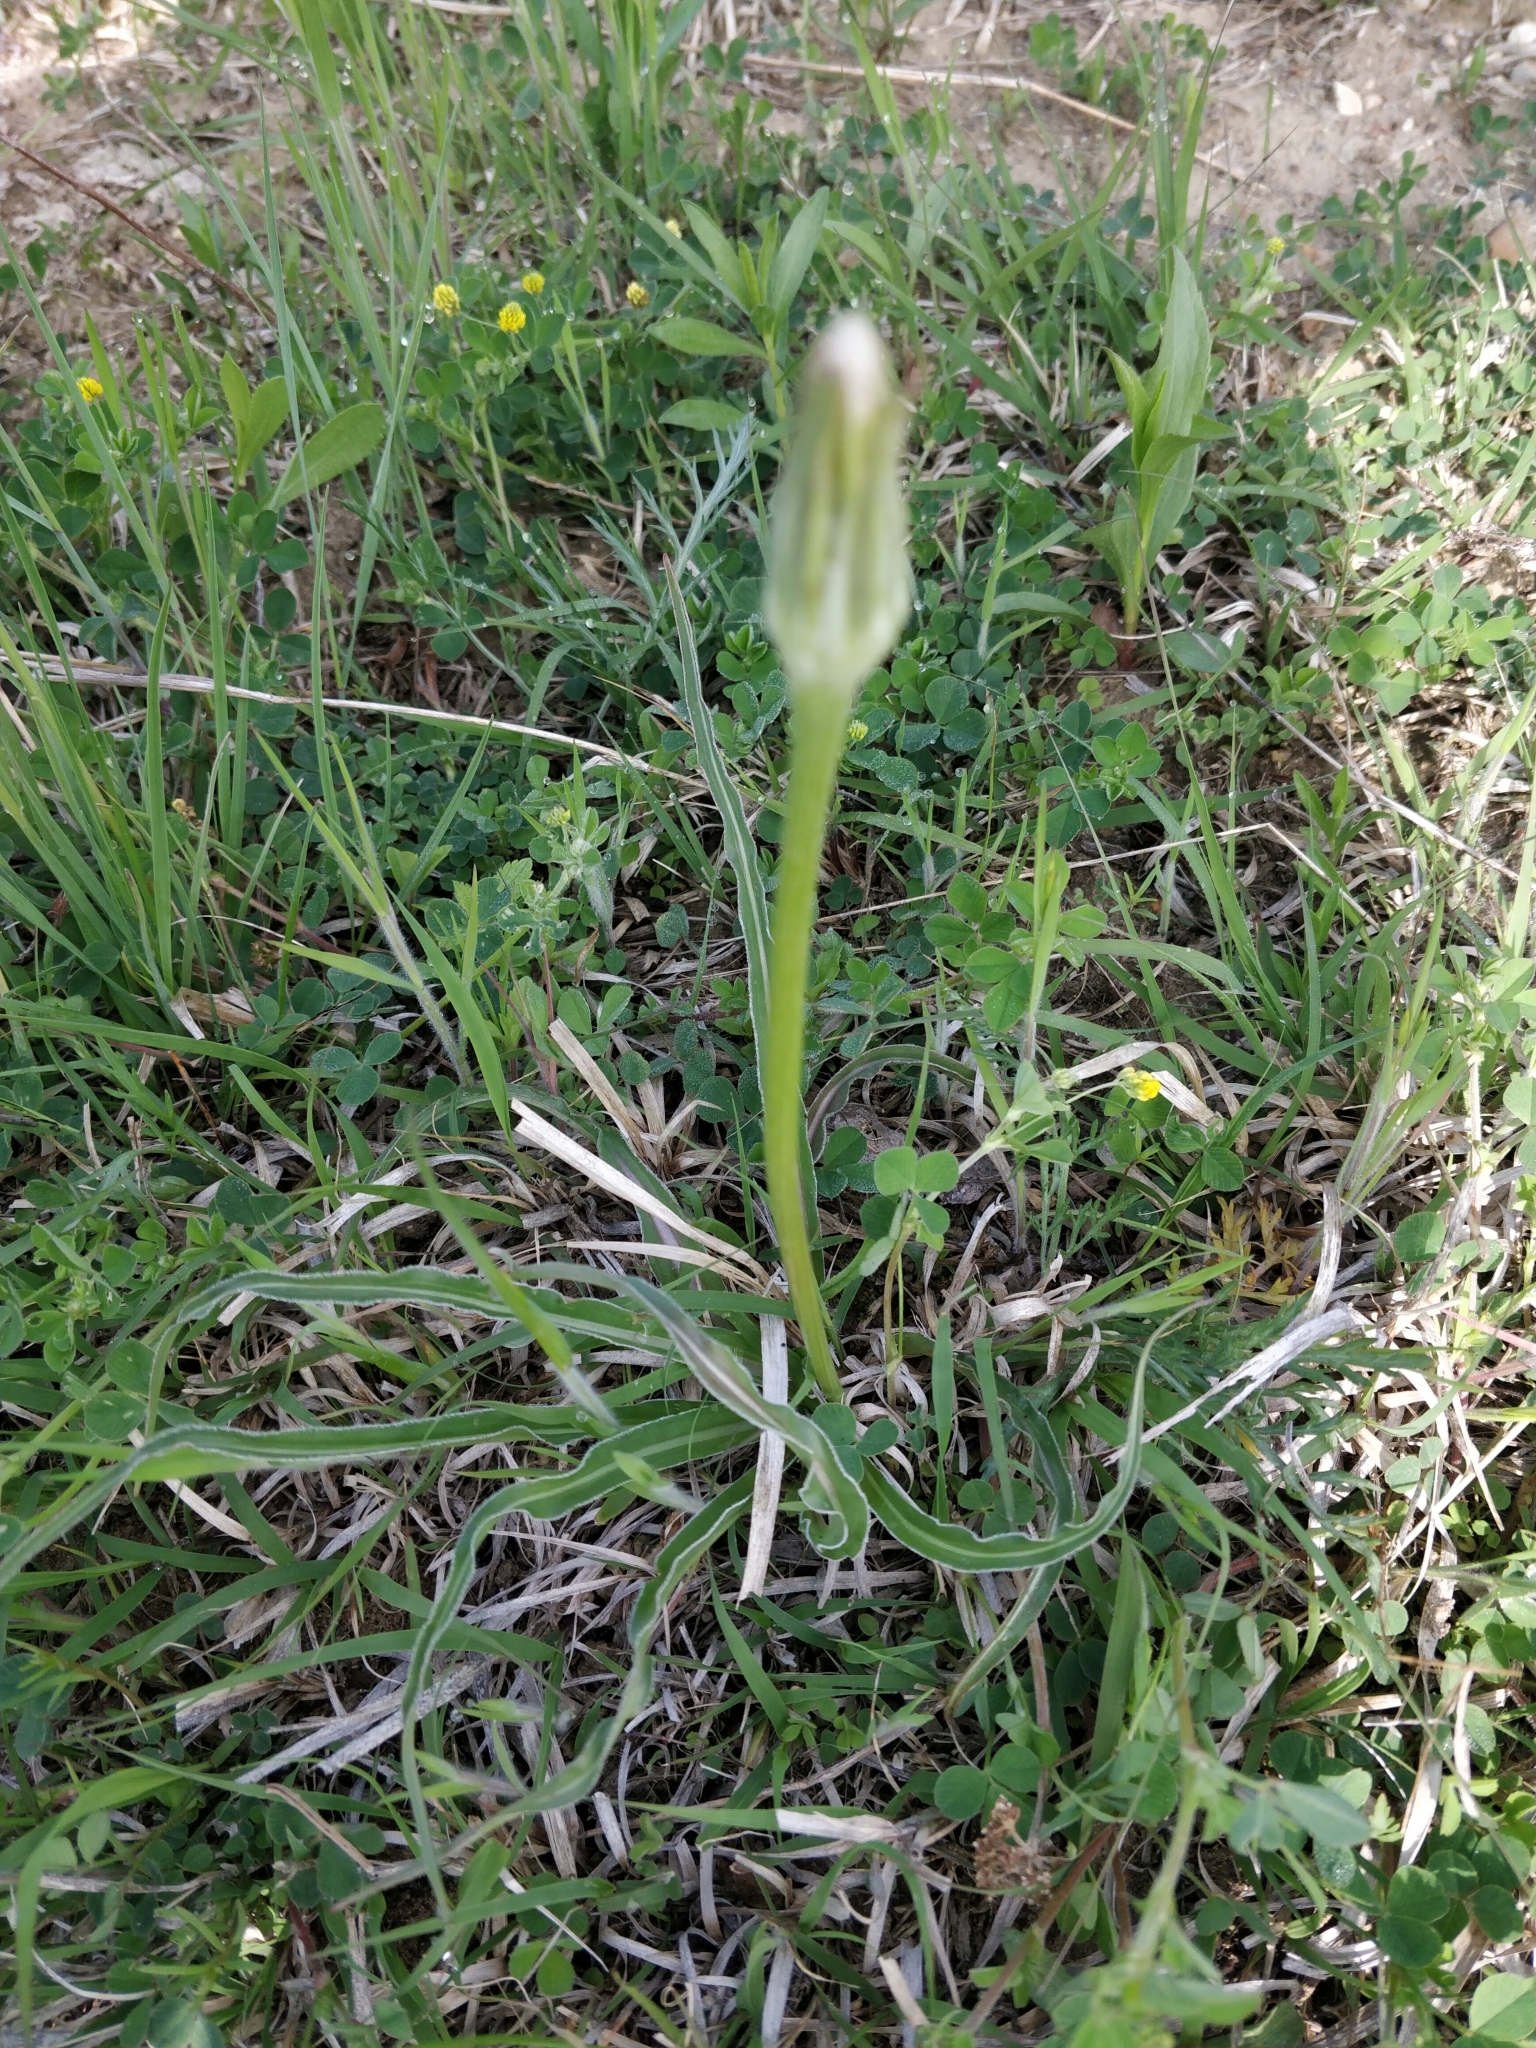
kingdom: Plantae
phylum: Tracheophyta
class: Magnoliopsida
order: Asterales
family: Asteraceae
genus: Microseris
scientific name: Microseris cuspidata
